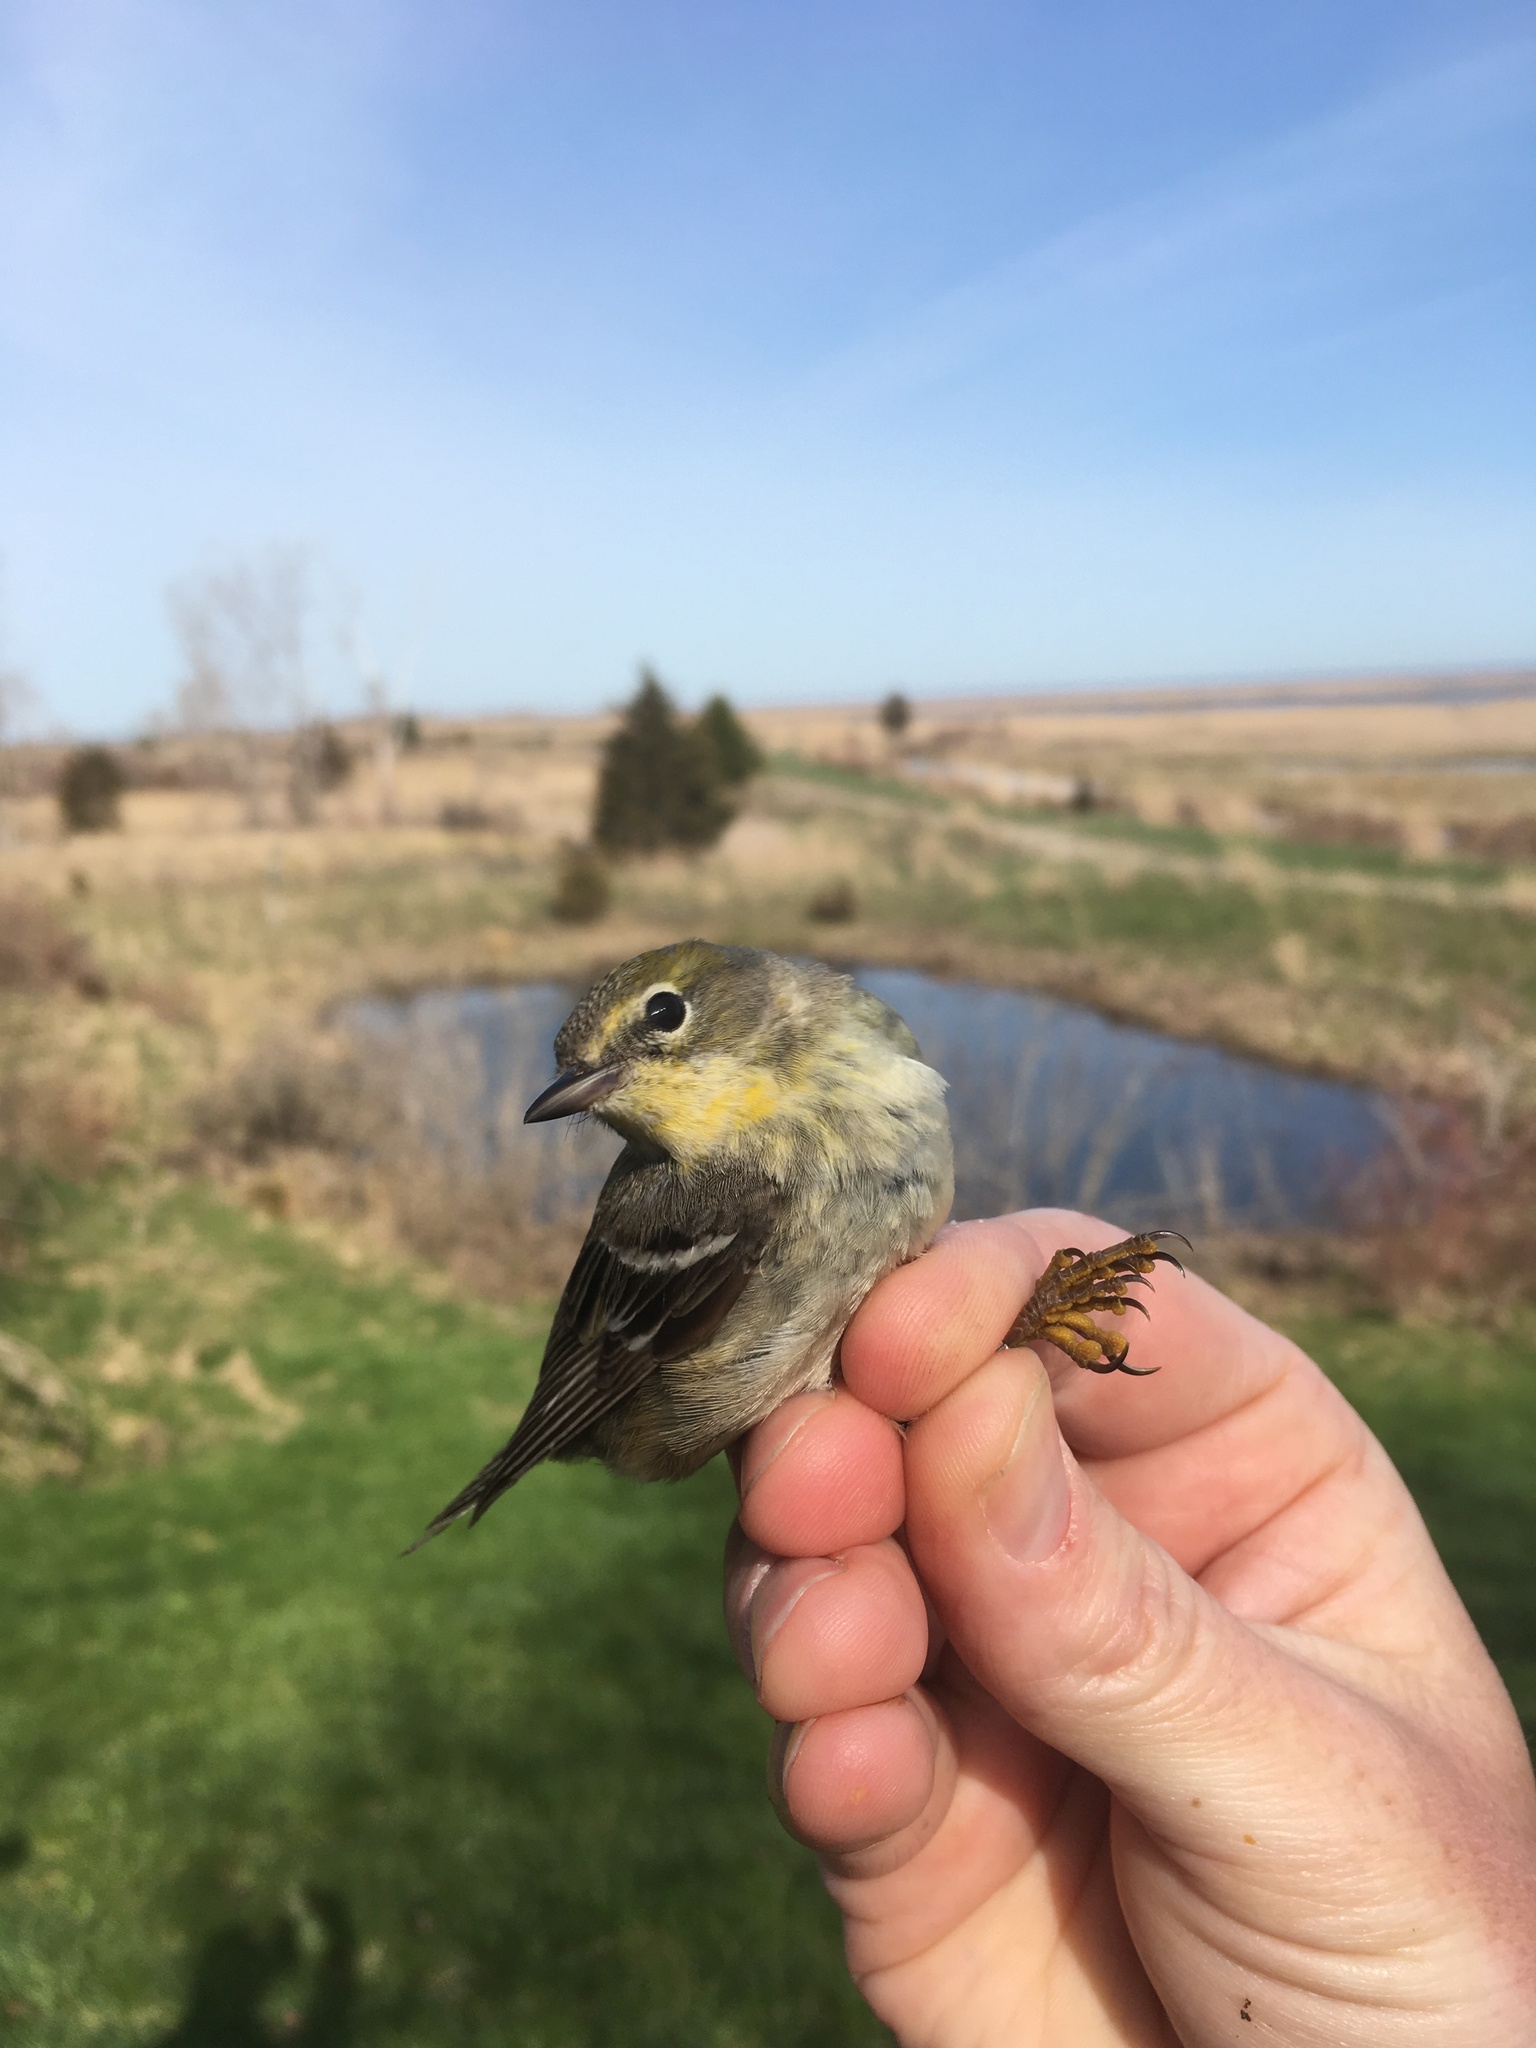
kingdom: Animalia
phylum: Chordata
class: Aves
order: Passeriformes
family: Parulidae
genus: Setophaga
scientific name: Setophaga pinus
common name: Pine warbler
